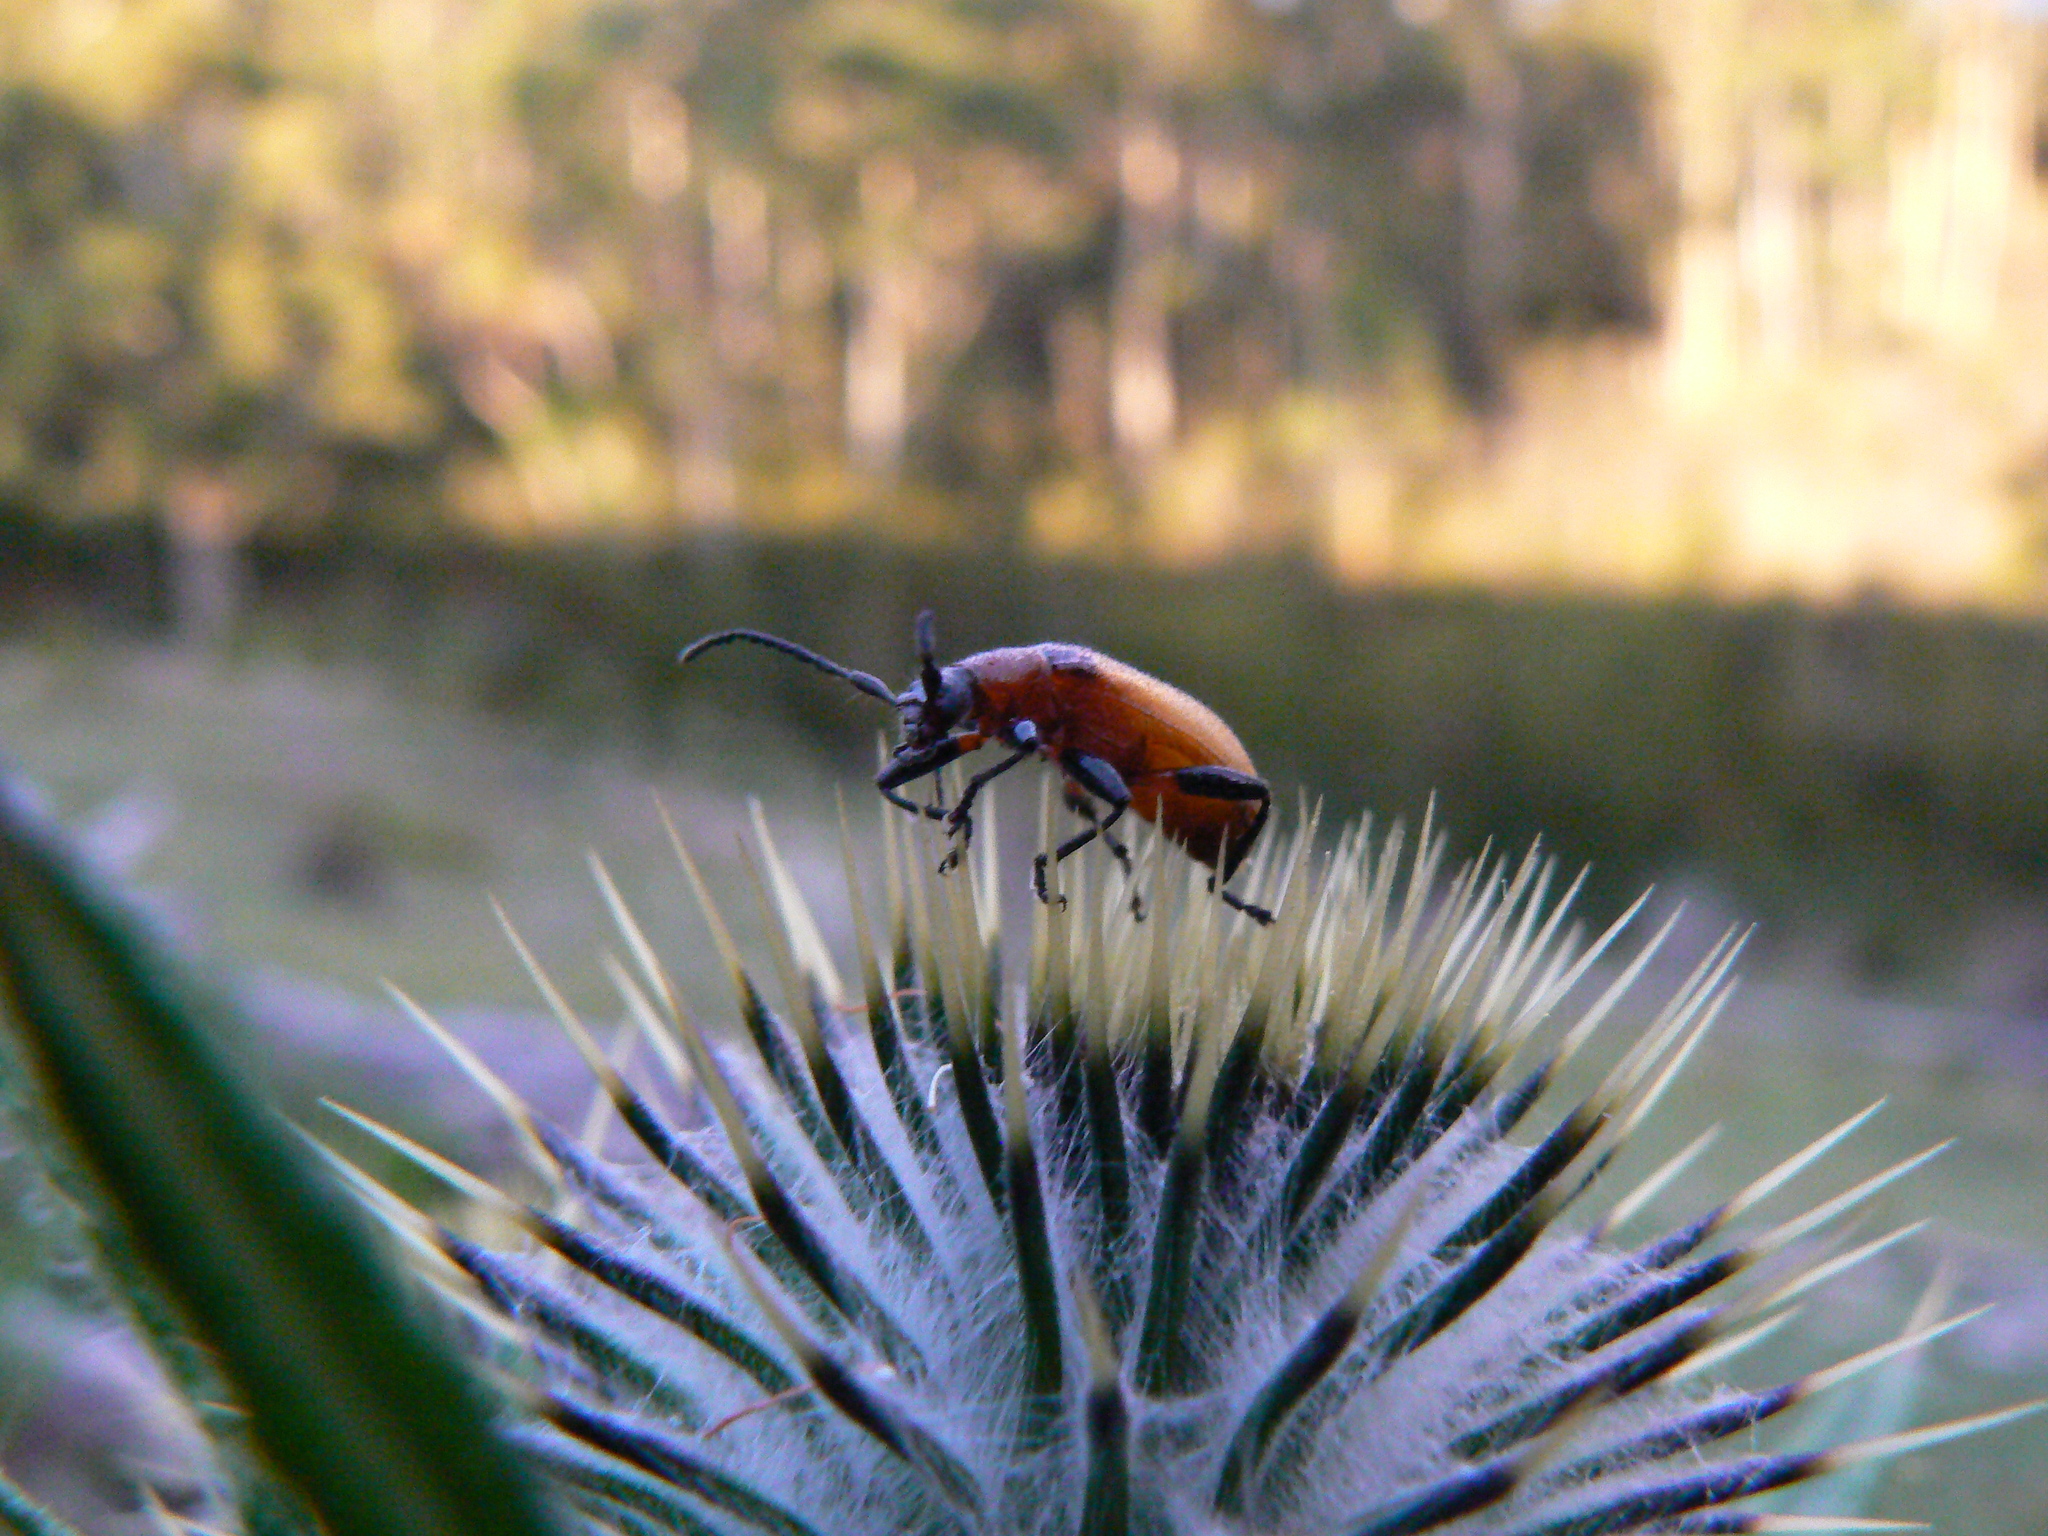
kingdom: Animalia
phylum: Arthropoda
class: Insecta
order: Coleoptera
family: Tenebrionidae
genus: Ecnolagria
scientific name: Ecnolagria
